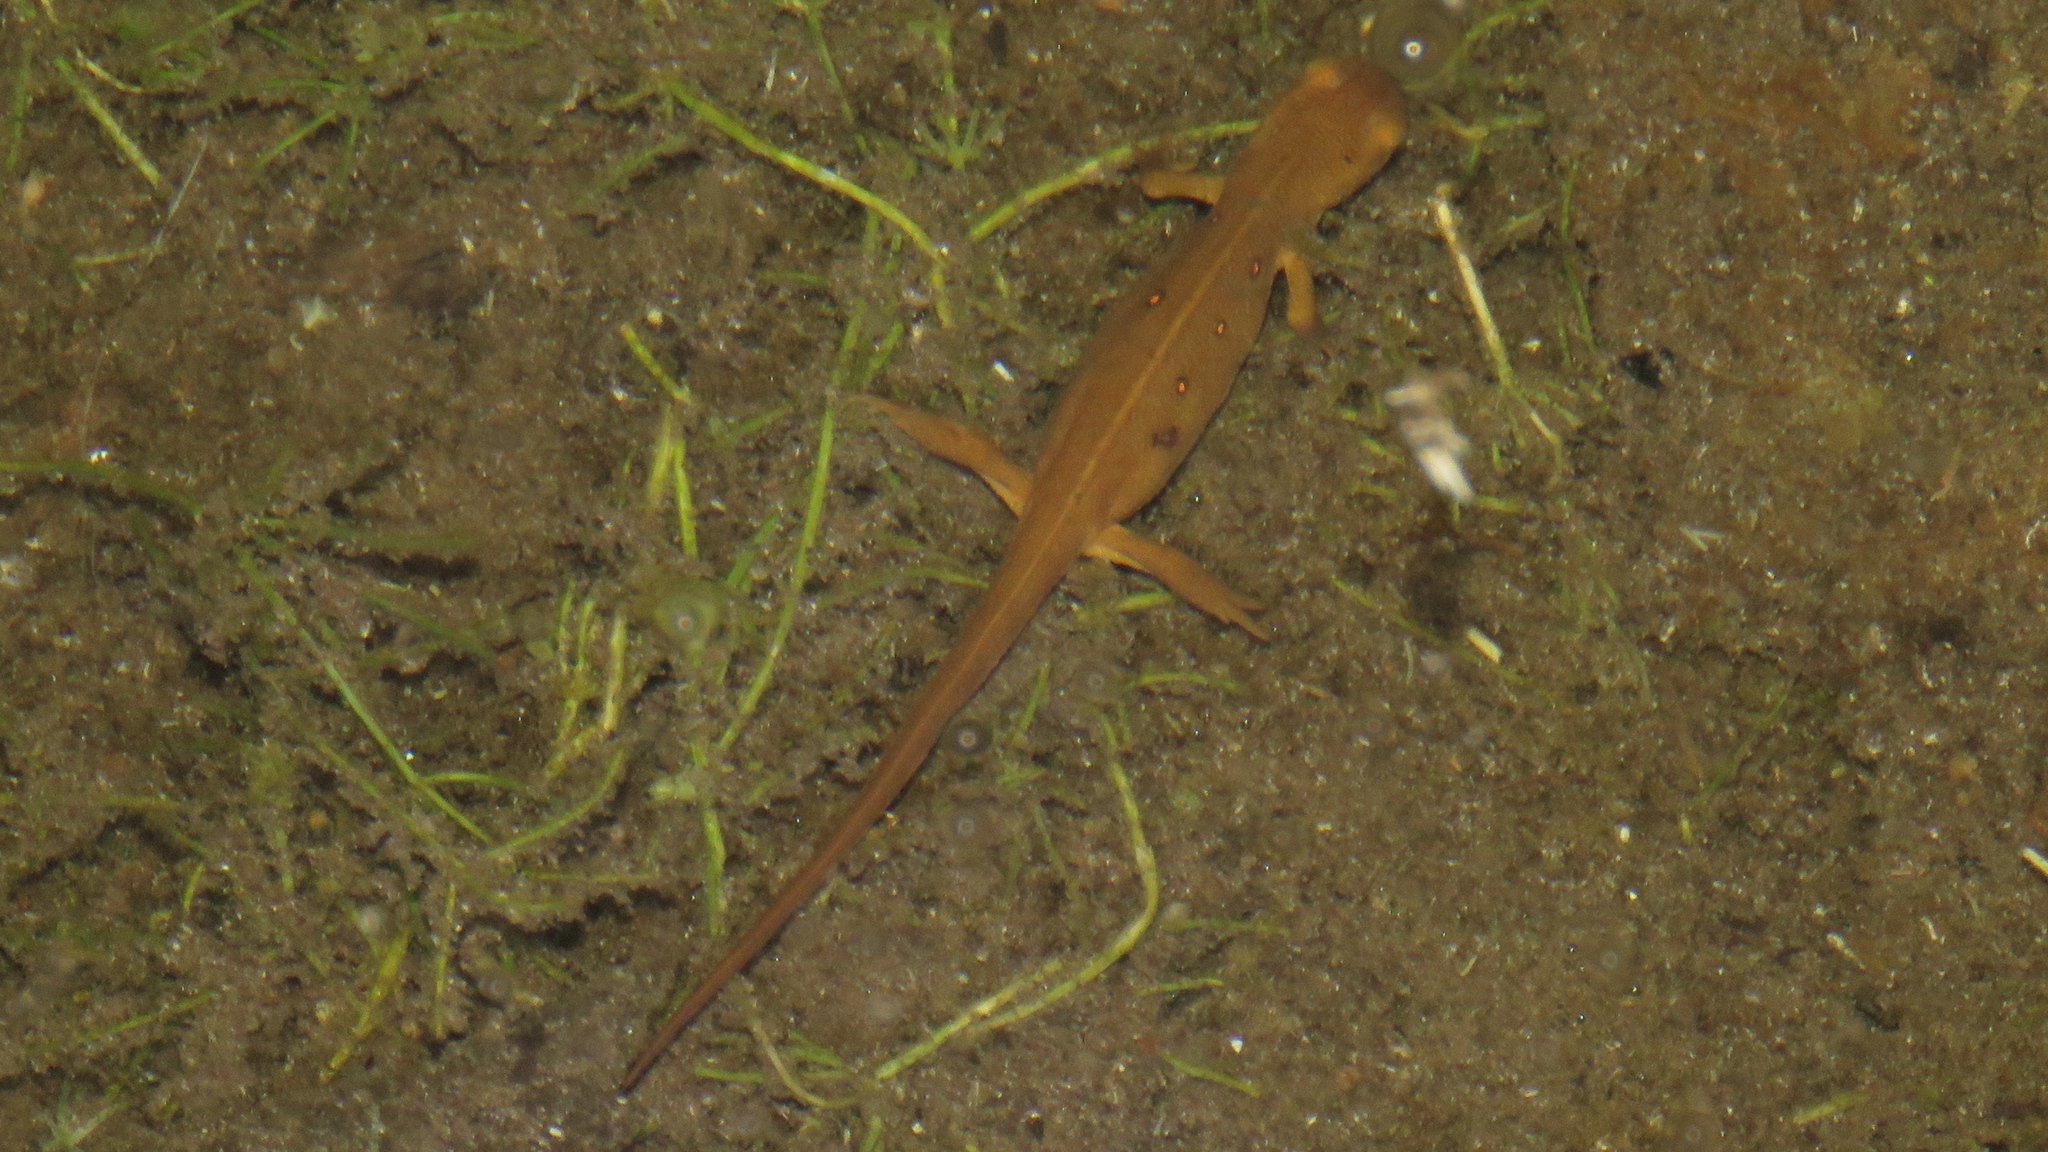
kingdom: Animalia
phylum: Chordata
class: Amphibia
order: Caudata
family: Salamandridae
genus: Notophthalmus
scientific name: Notophthalmus viridescens
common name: Eastern newt
